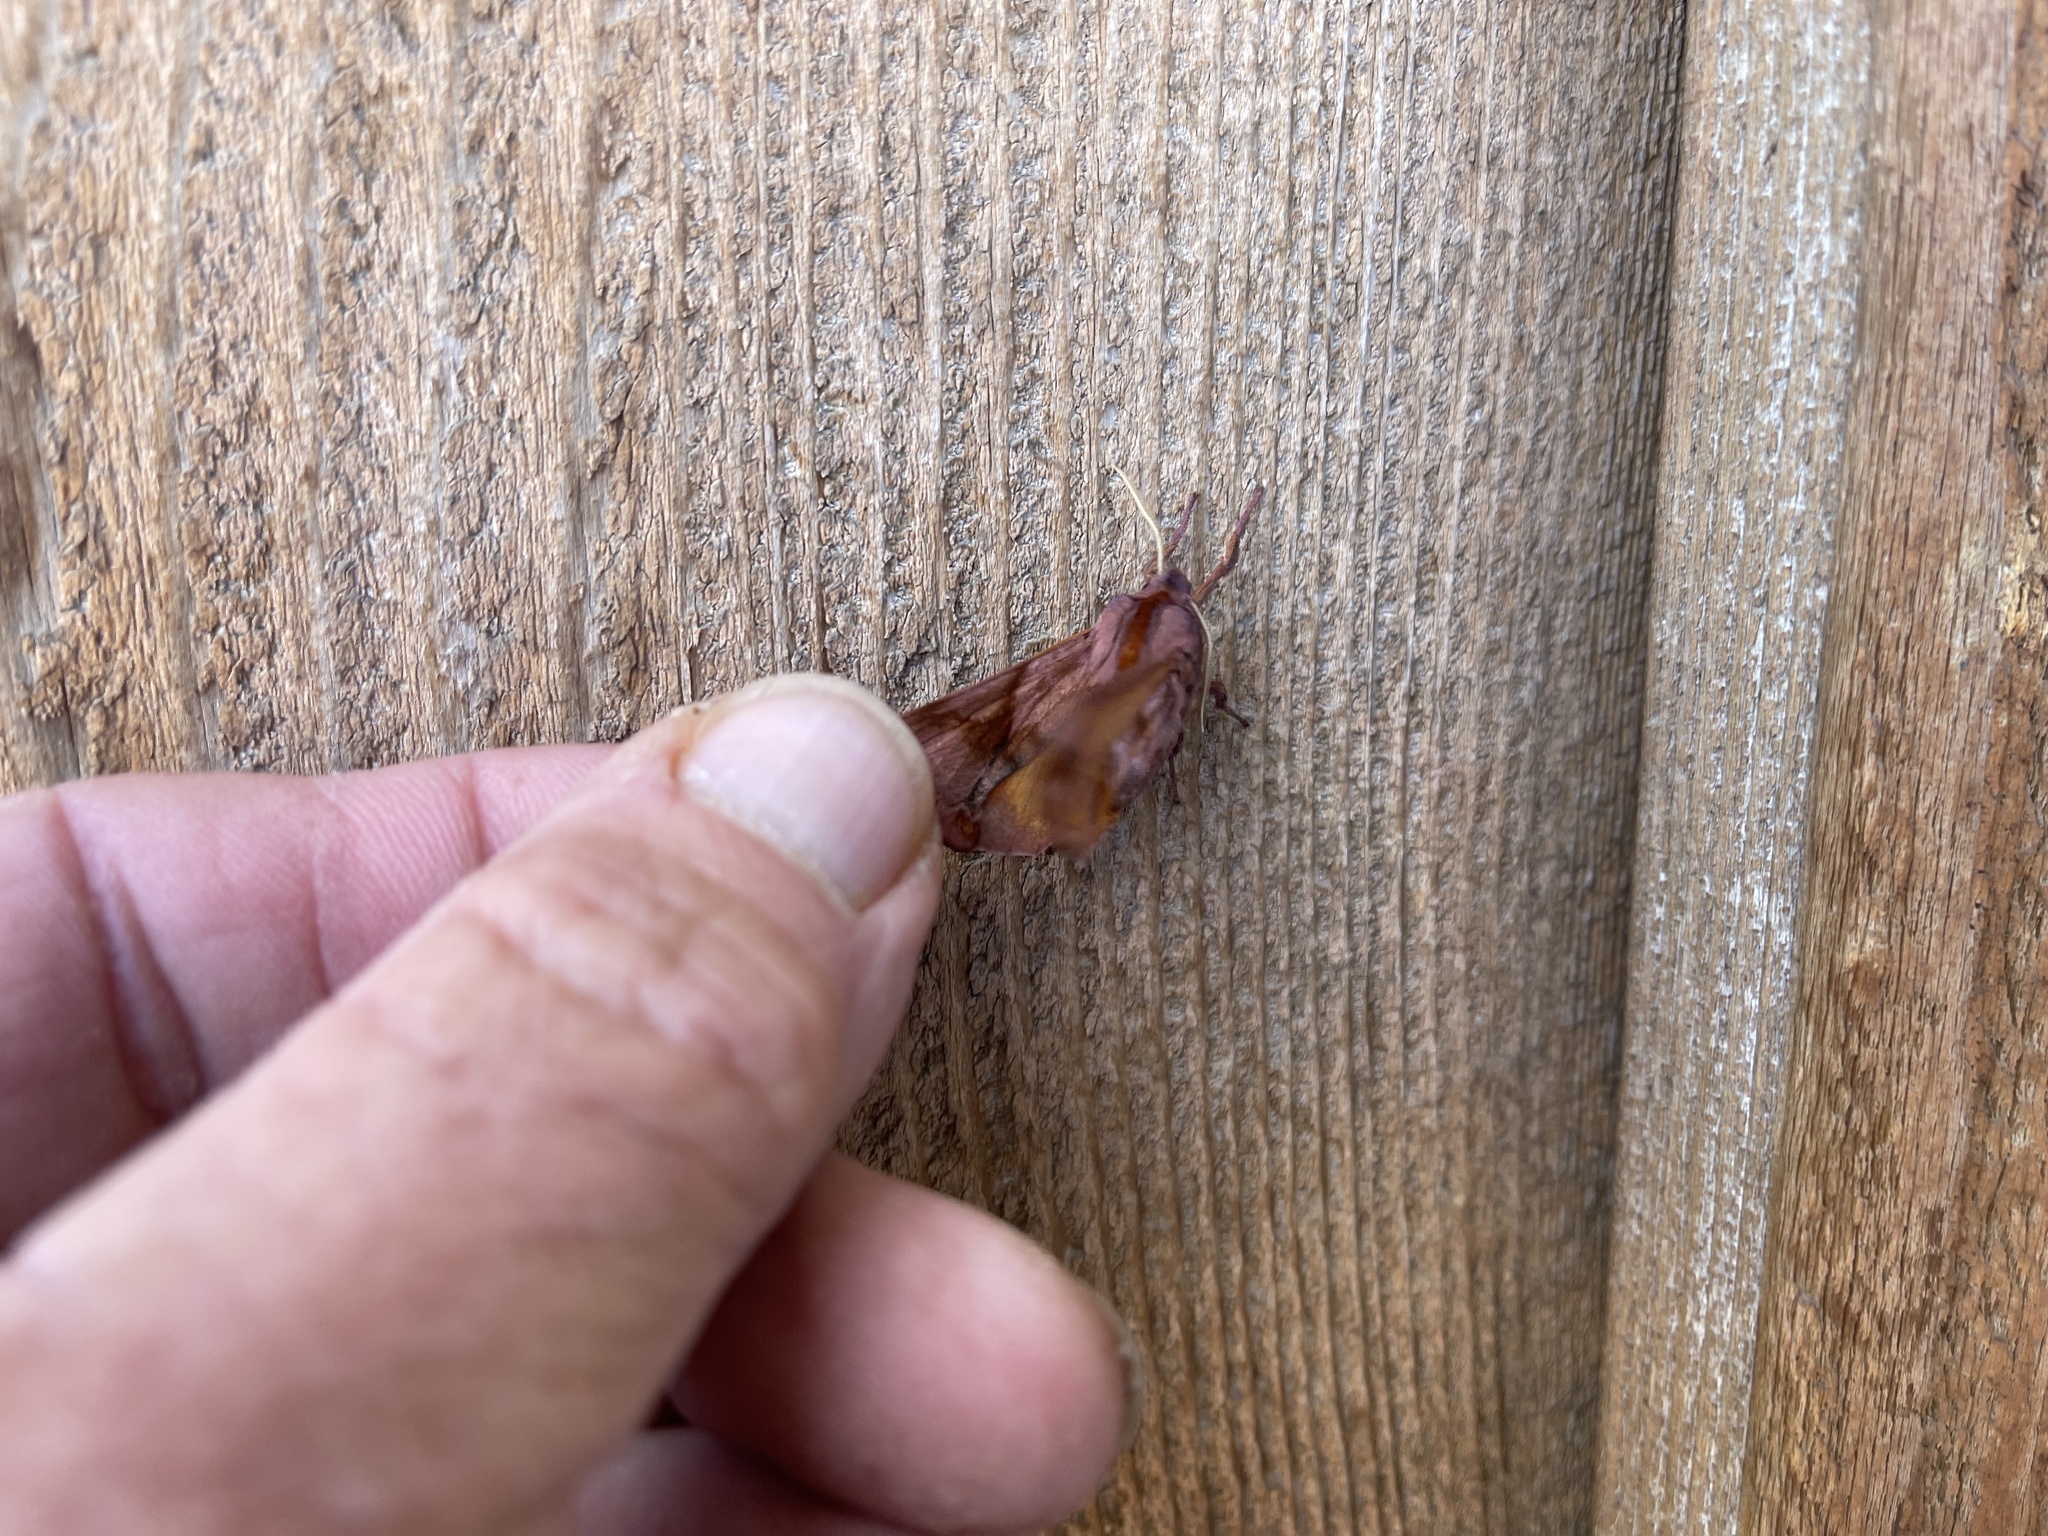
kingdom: Animalia
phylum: Arthropoda
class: Insecta
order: Lepidoptera
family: Sphingidae
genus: Paonias
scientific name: Paonias myops
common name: Small-eyed sphinx
